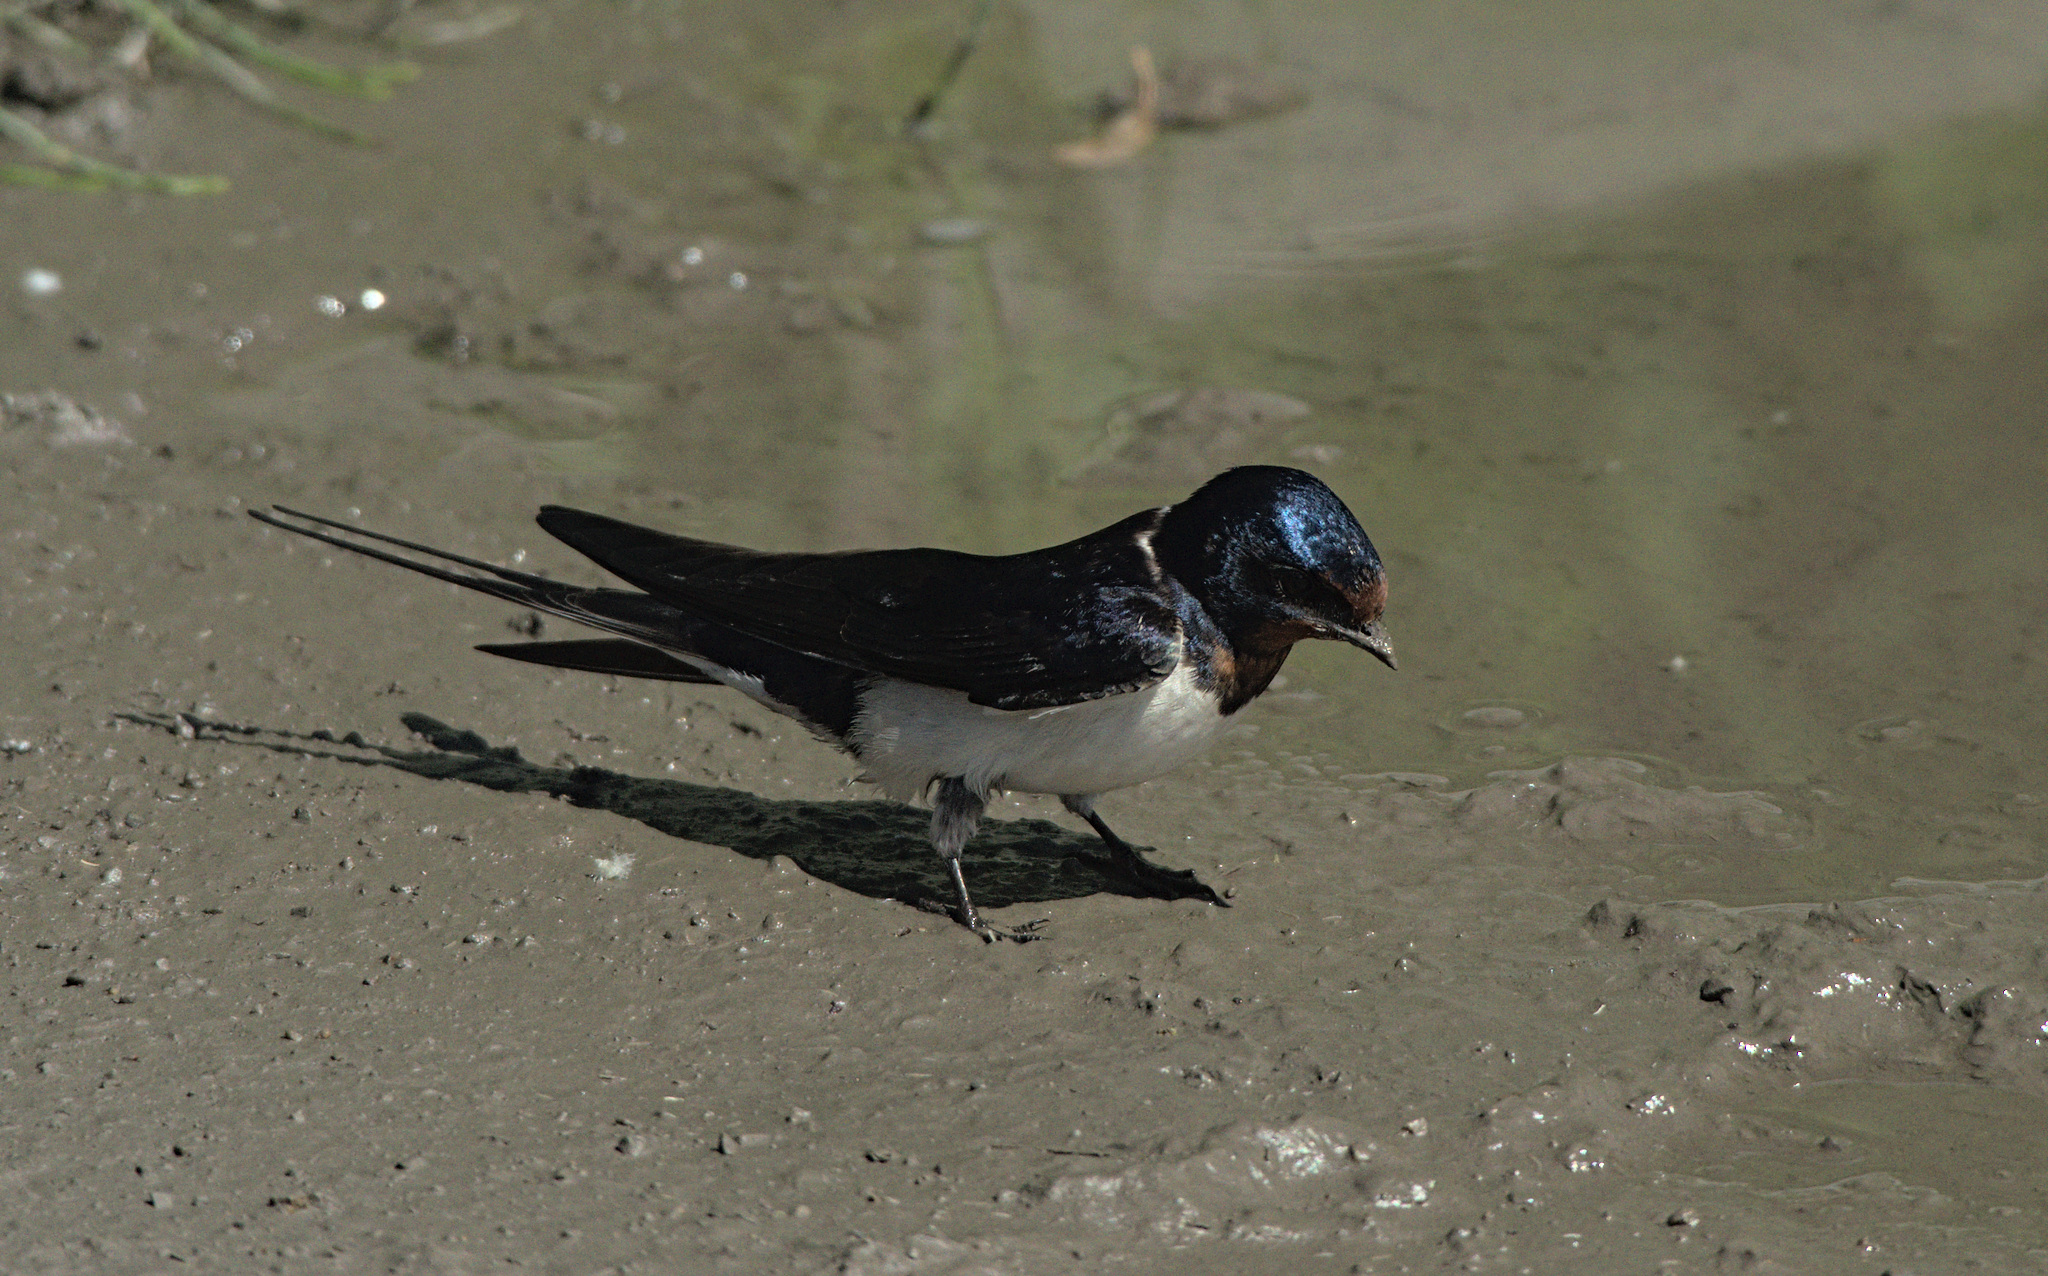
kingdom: Animalia
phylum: Chordata
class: Aves
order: Passeriformes
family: Hirundinidae
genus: Hirundo
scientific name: Hirundo rustica
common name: Barn swallow
